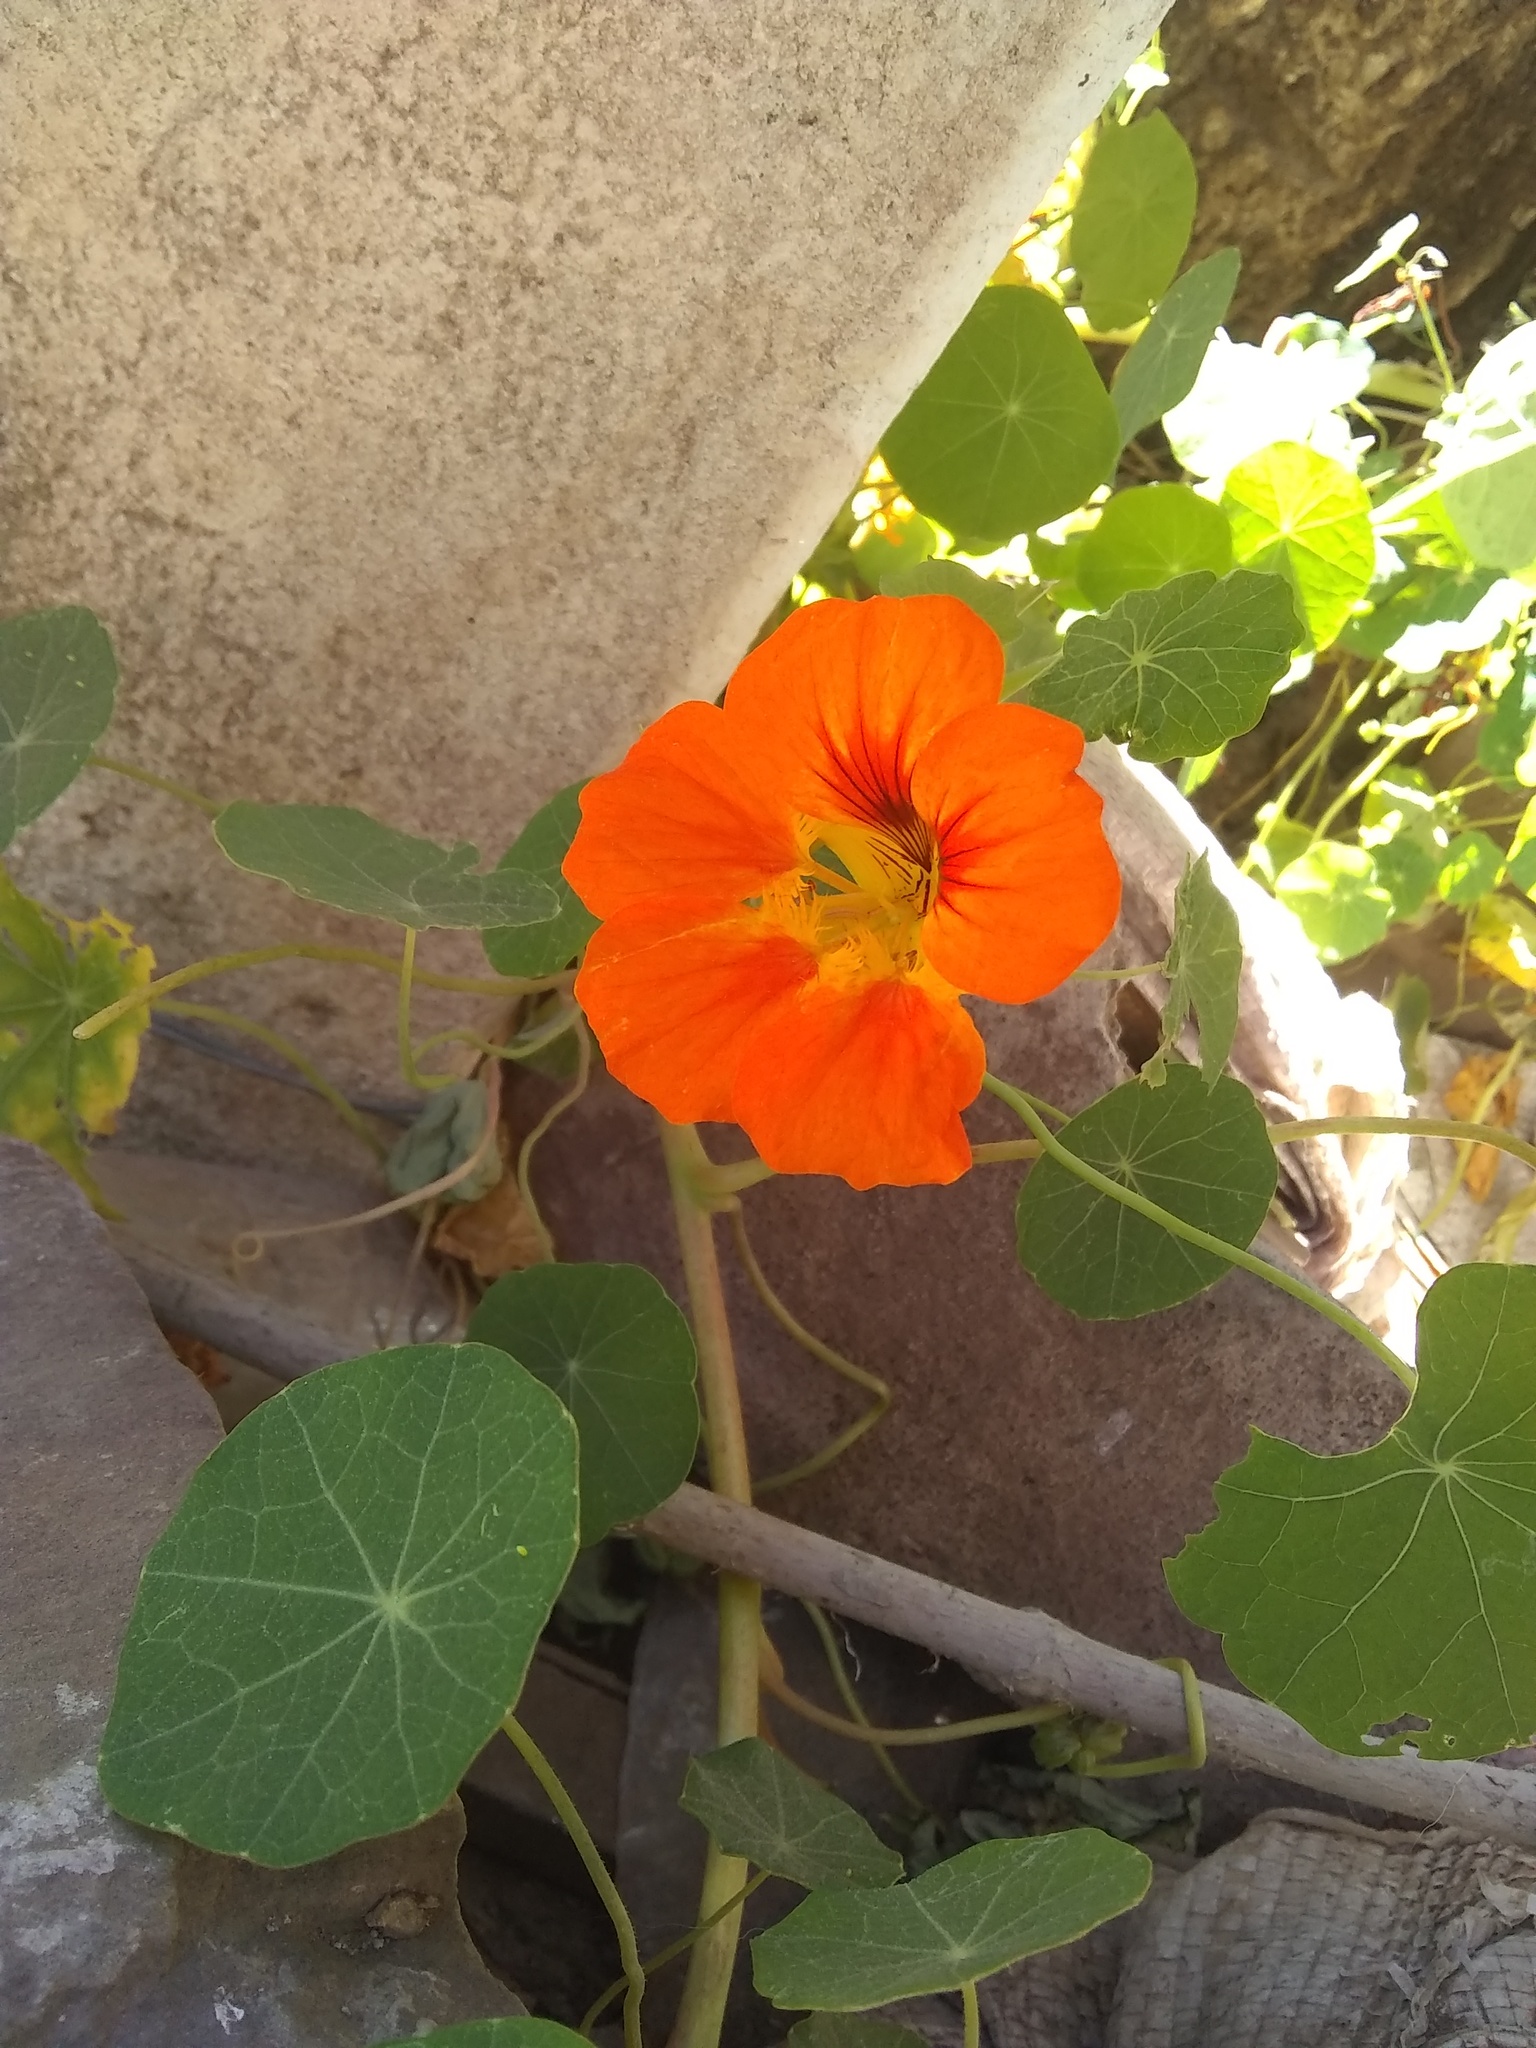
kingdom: Plantae
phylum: Tracheophyta
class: Magnoliopsida
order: Brassicales
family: Tropaeolaceae
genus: Tropaeolum
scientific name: Tropaeolum majus
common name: Nasturtium
